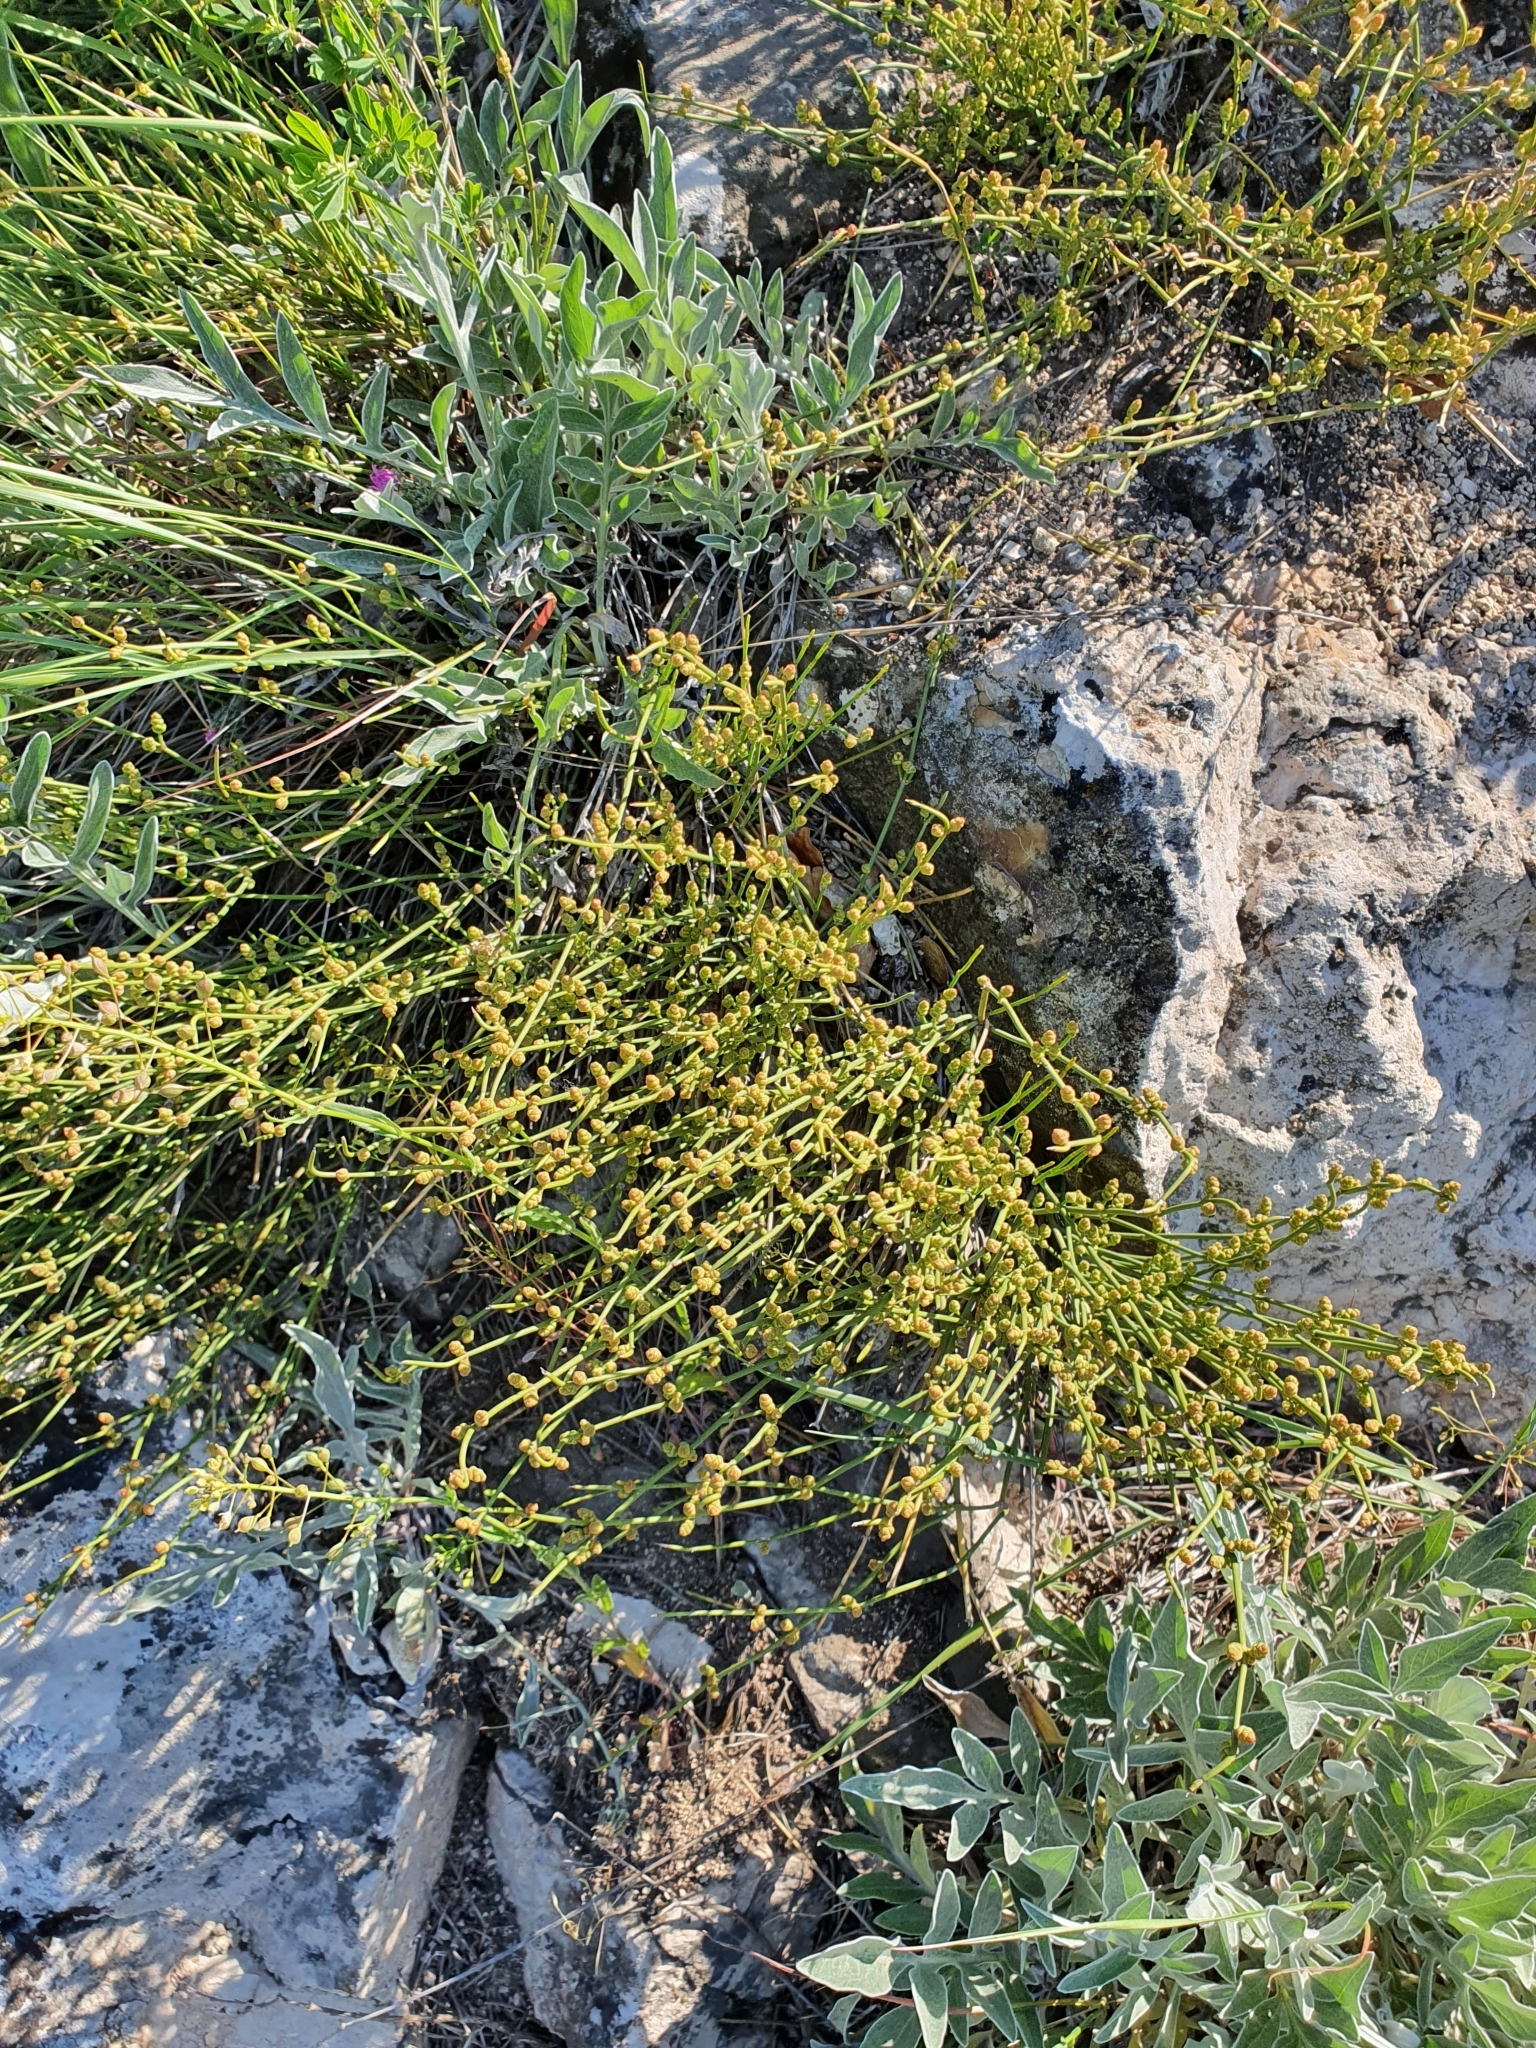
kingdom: Plantae
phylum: Tracheophyta
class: Gnetopsida
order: Ephedrales
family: Ephedraceae
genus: Ephedra
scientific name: Ephedra distachya
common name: Sea grape
